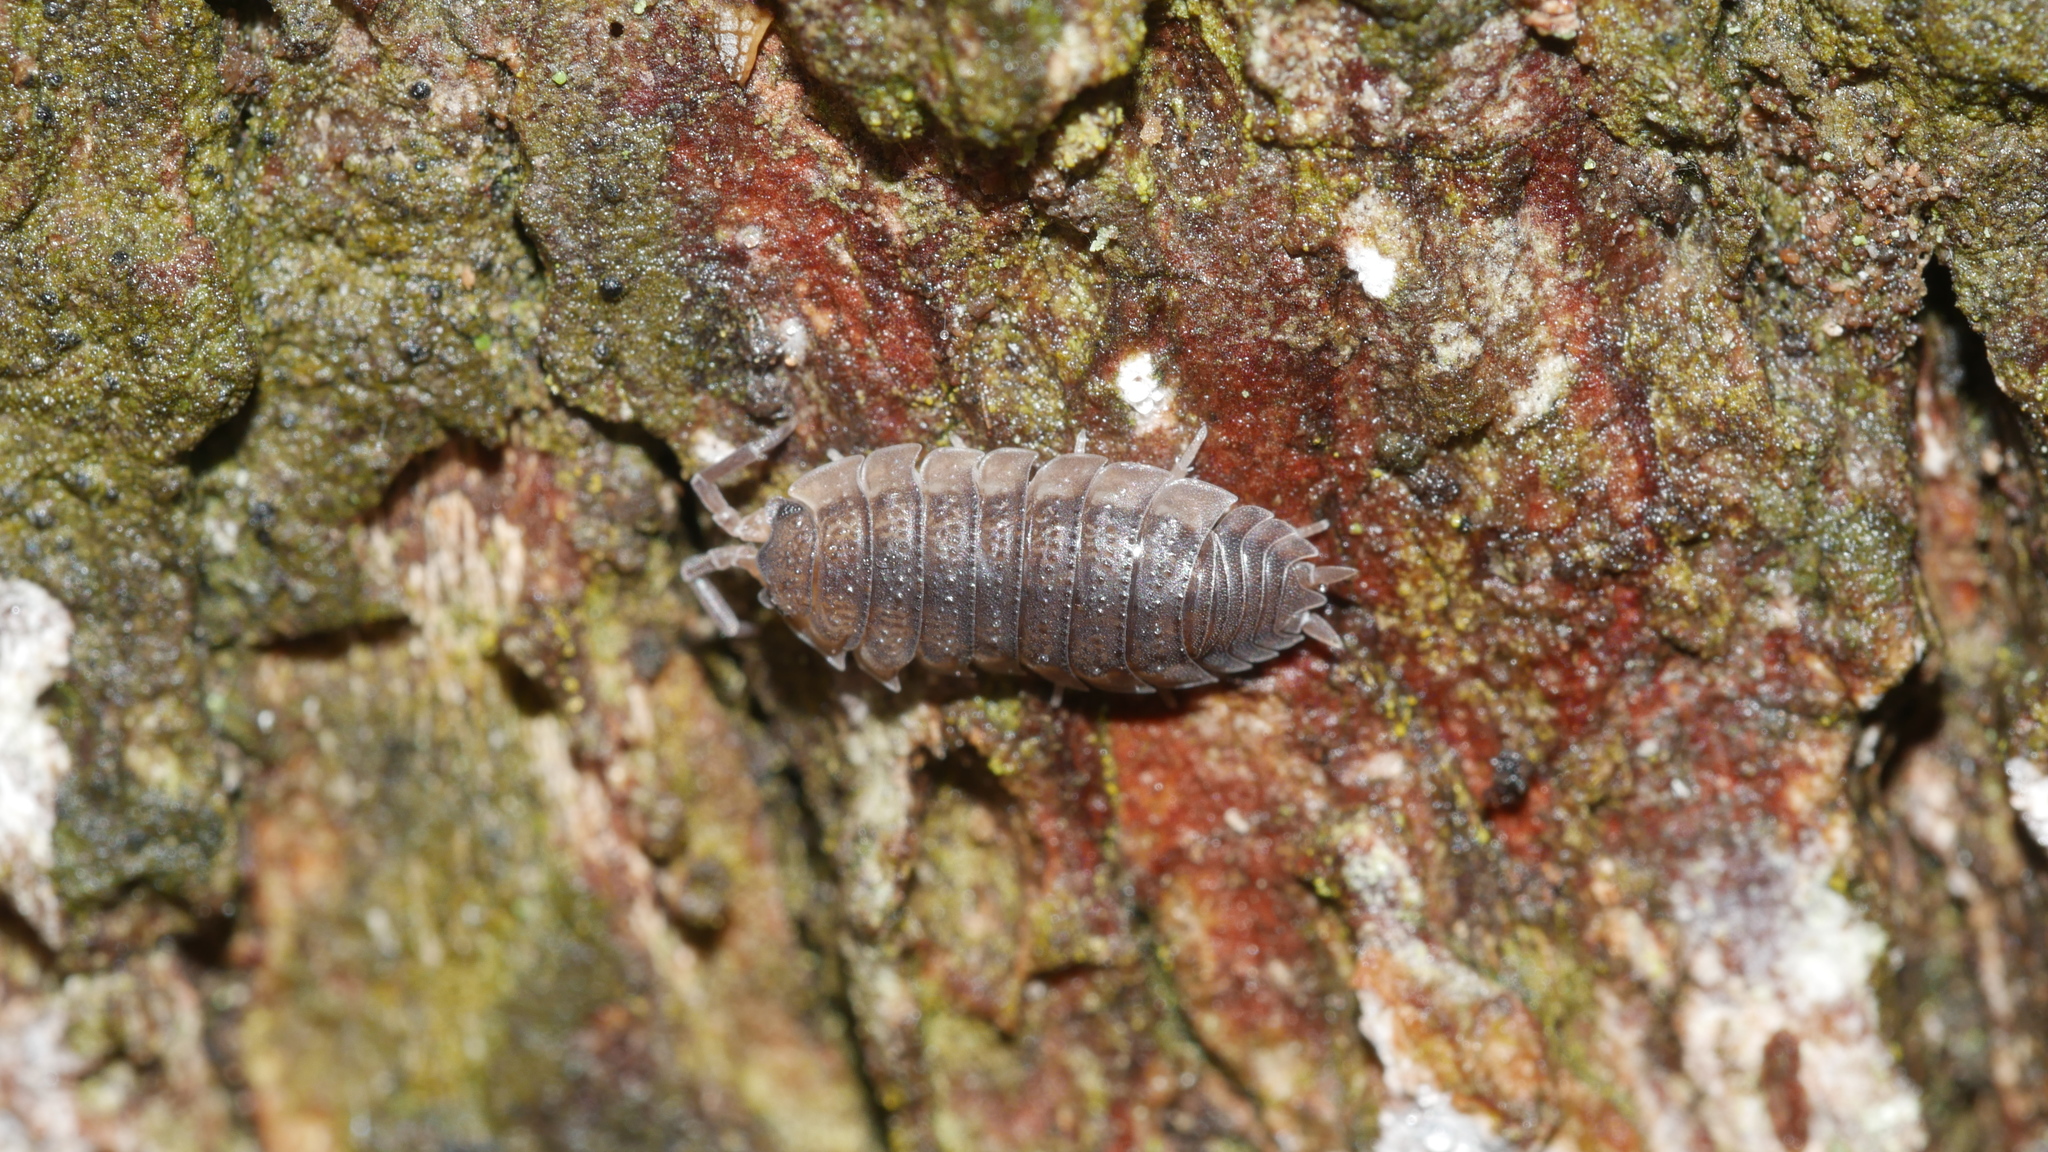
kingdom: Animalia
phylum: Arthropoda
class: Malacostraca
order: Isopoda
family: Porcellionidae
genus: Porcellio
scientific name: Porcellio scaber
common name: Common rough woodlouse
